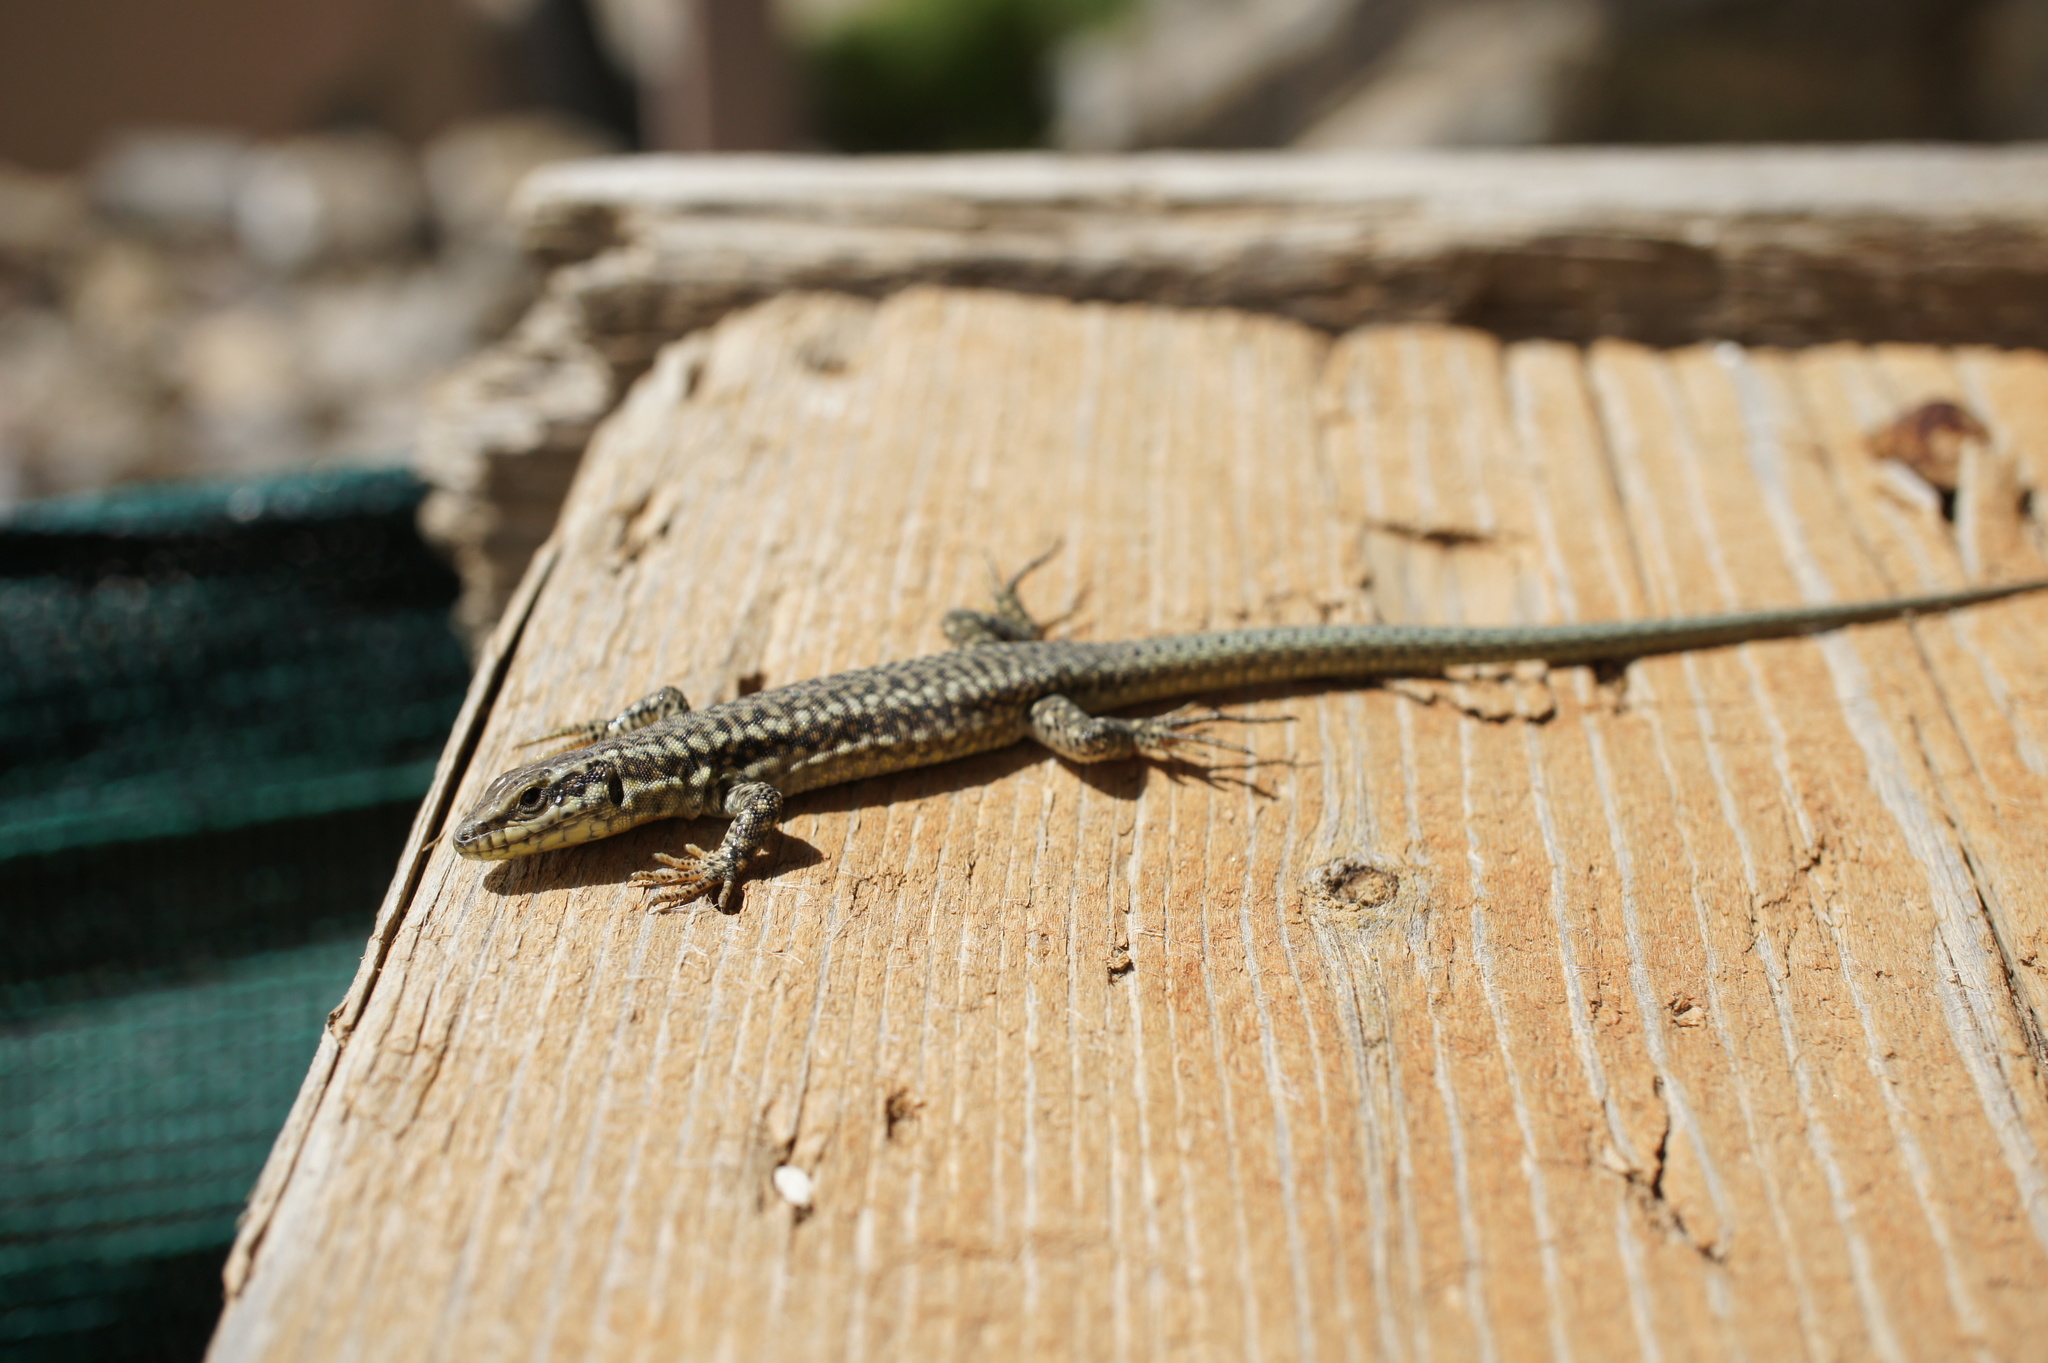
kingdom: Animalia
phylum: Chordata
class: Squamata
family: Lacertidae
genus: Podarcis
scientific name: Podarcis erhardii
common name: Erhard's wall lizard
